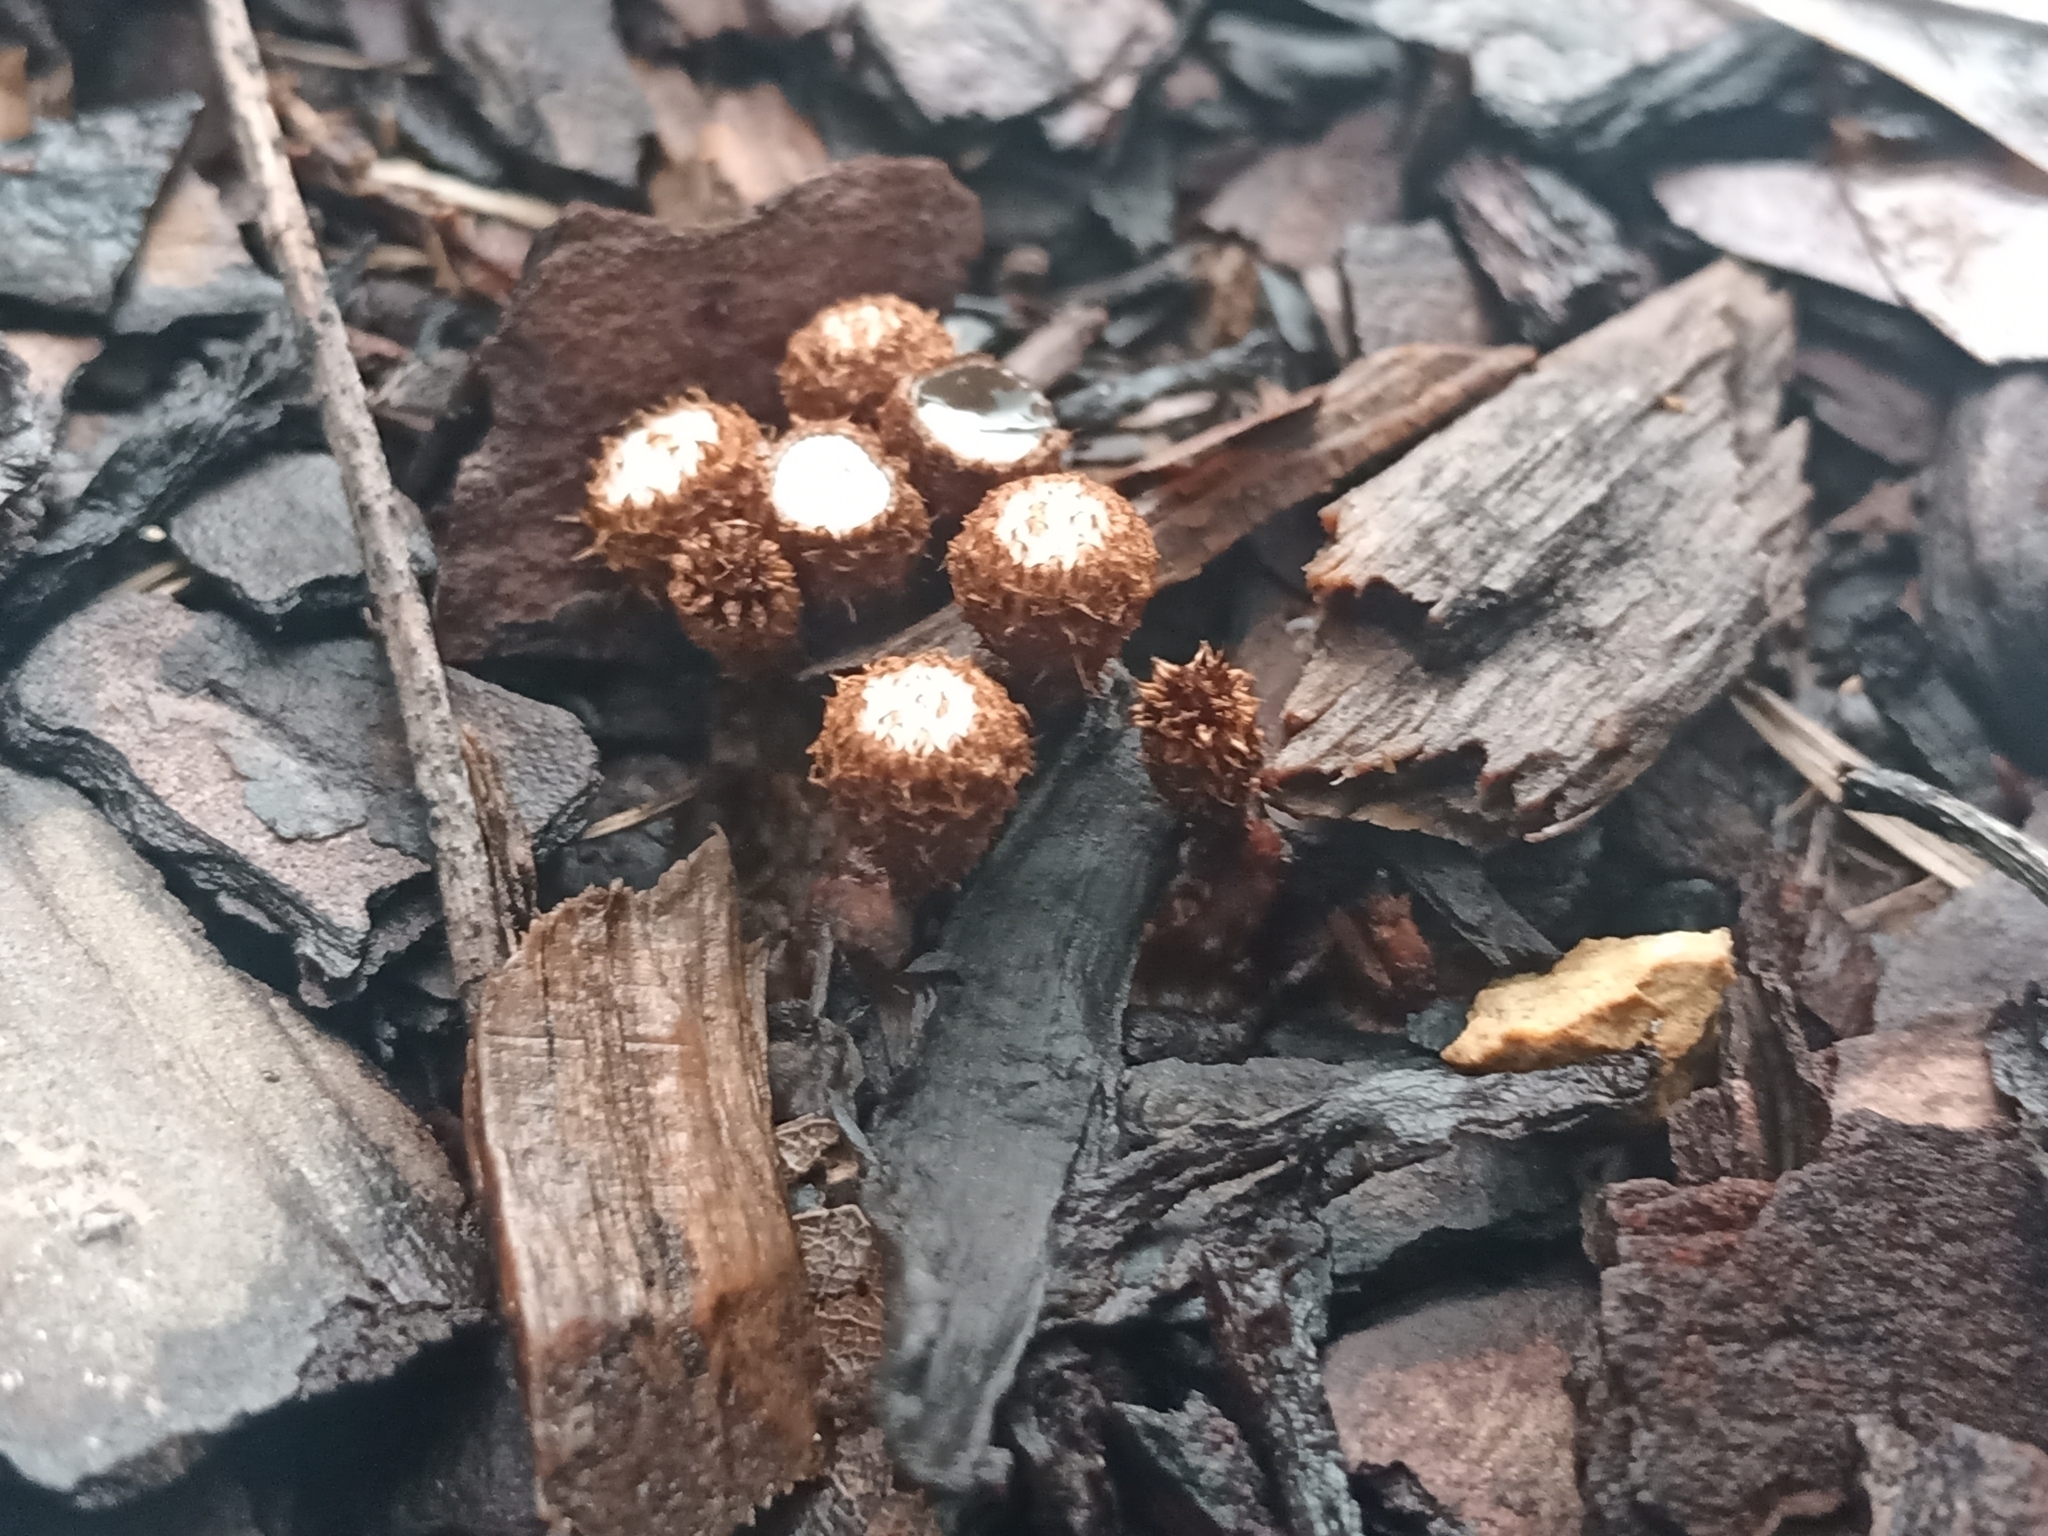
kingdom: Fungi
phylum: Basidiomycota
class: Agaricomycetes
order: Agaricales
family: Agaricaceae
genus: Cyathus
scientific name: Cyathus striatus
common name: Fluted bird's nest
